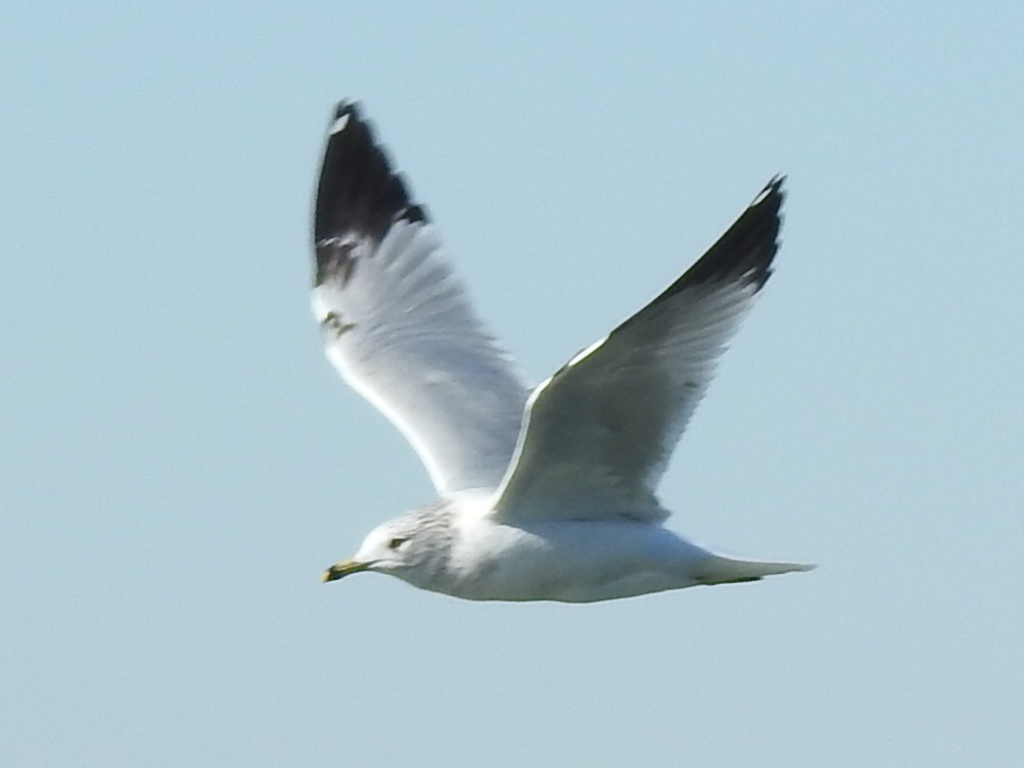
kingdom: Animalia
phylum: Chordata
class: Aves
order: Charadriiformes
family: Laridae
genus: Larus
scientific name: Larus delawarensis
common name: Ring-billed gull
